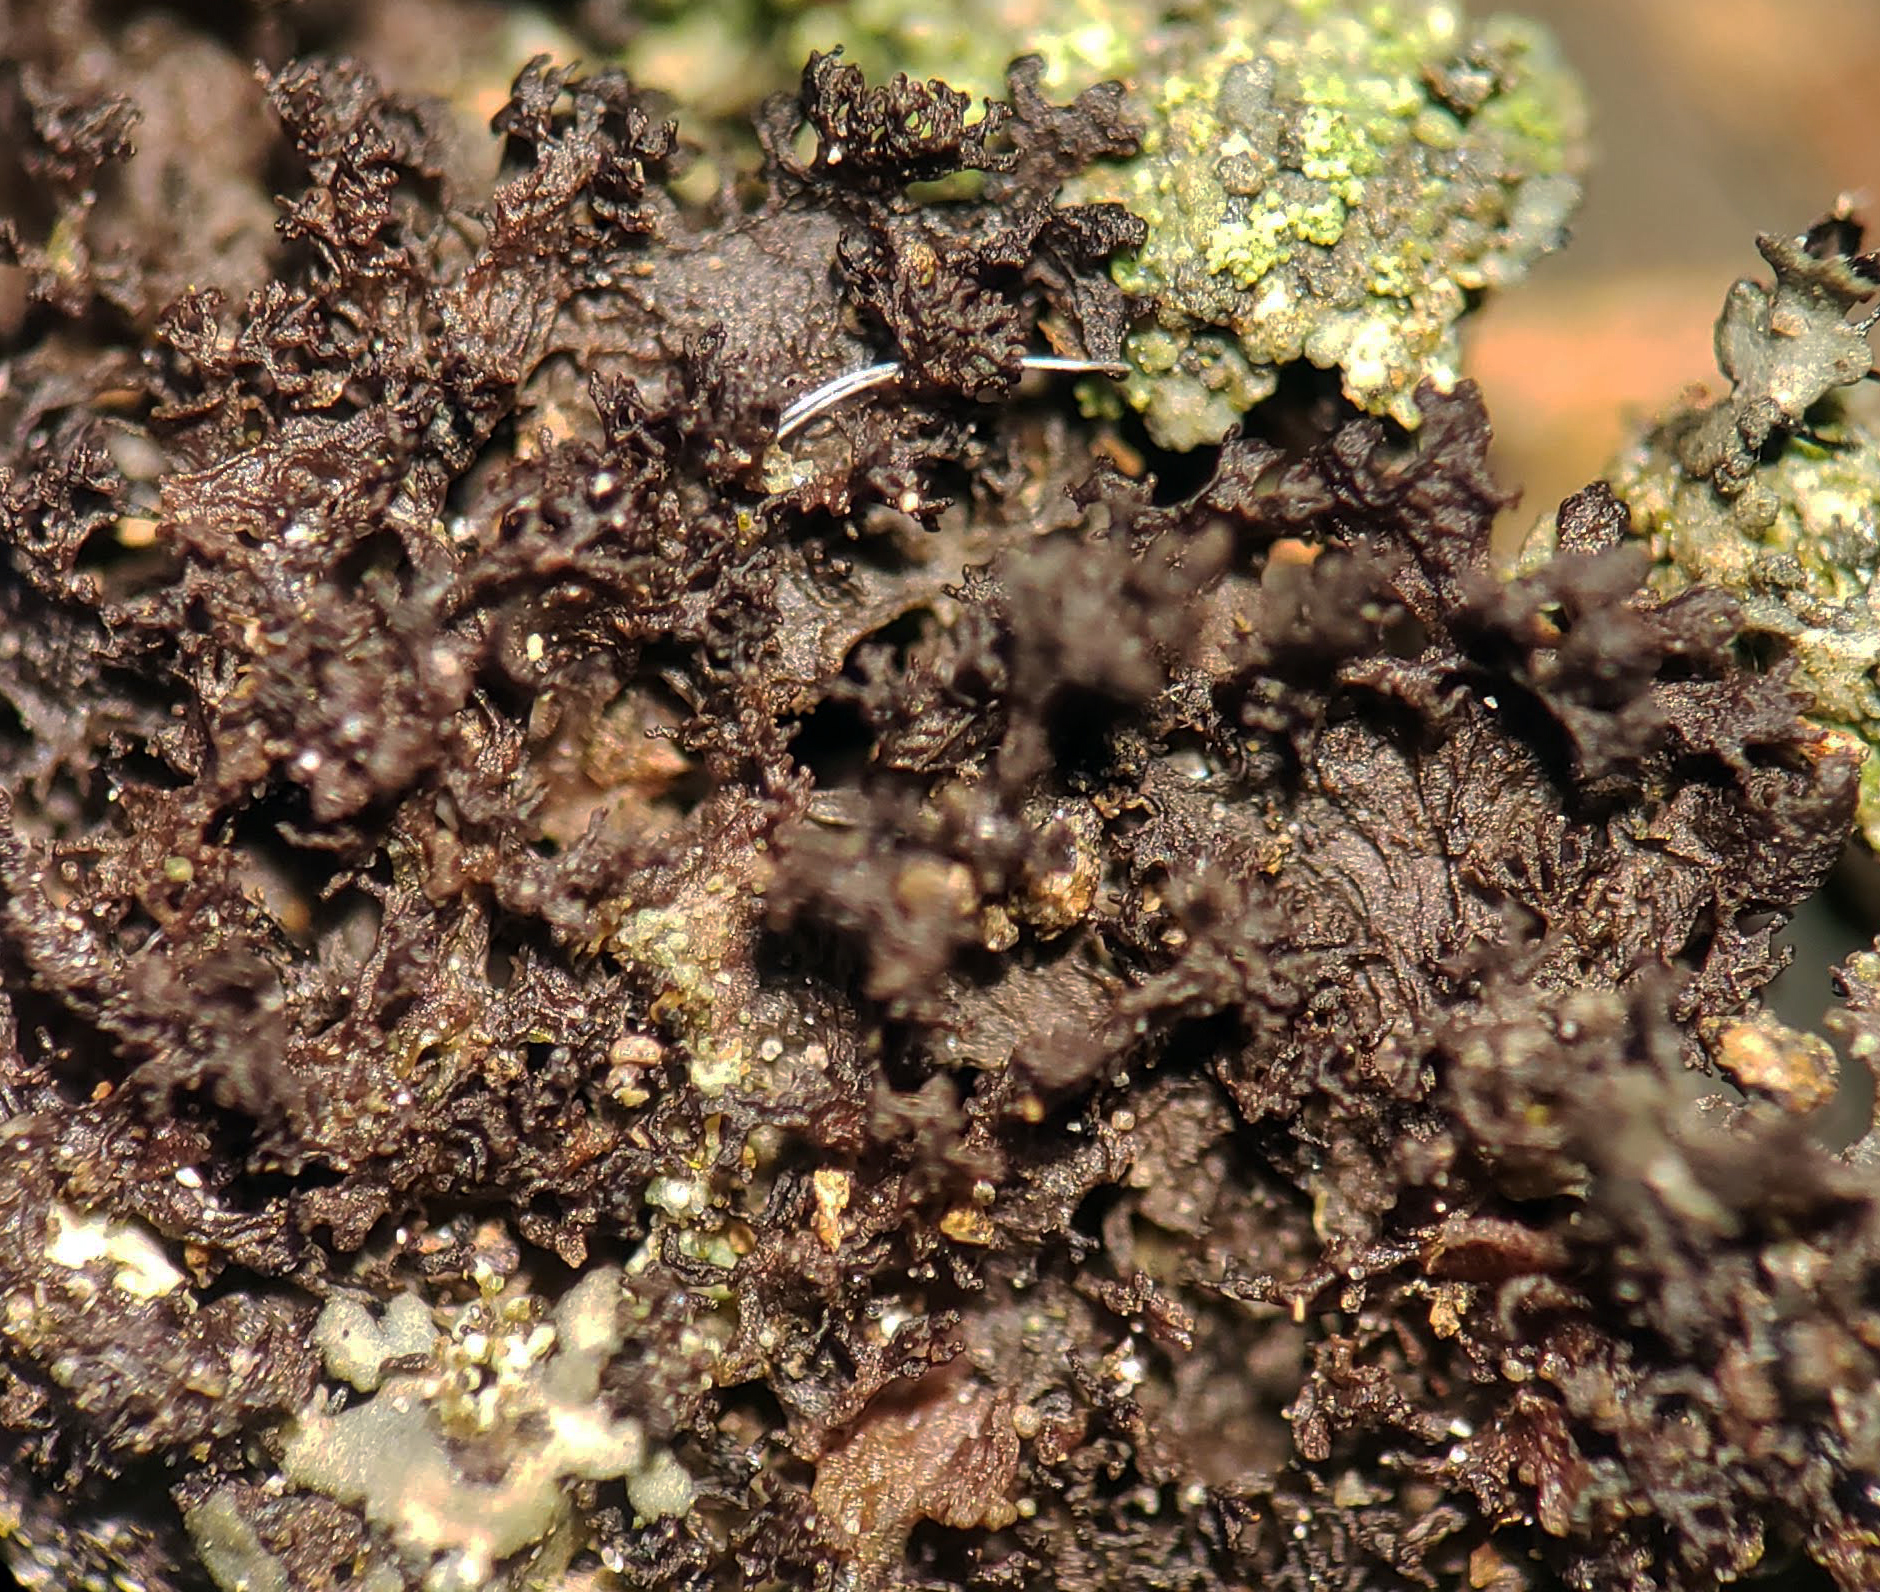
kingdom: Fungi
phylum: Ascomycota
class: Lecanoromycetes
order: Peltigerales
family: Collemataceae
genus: Scytinium
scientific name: Scytinium lichenoides
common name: Tattered jellyskin lichen
